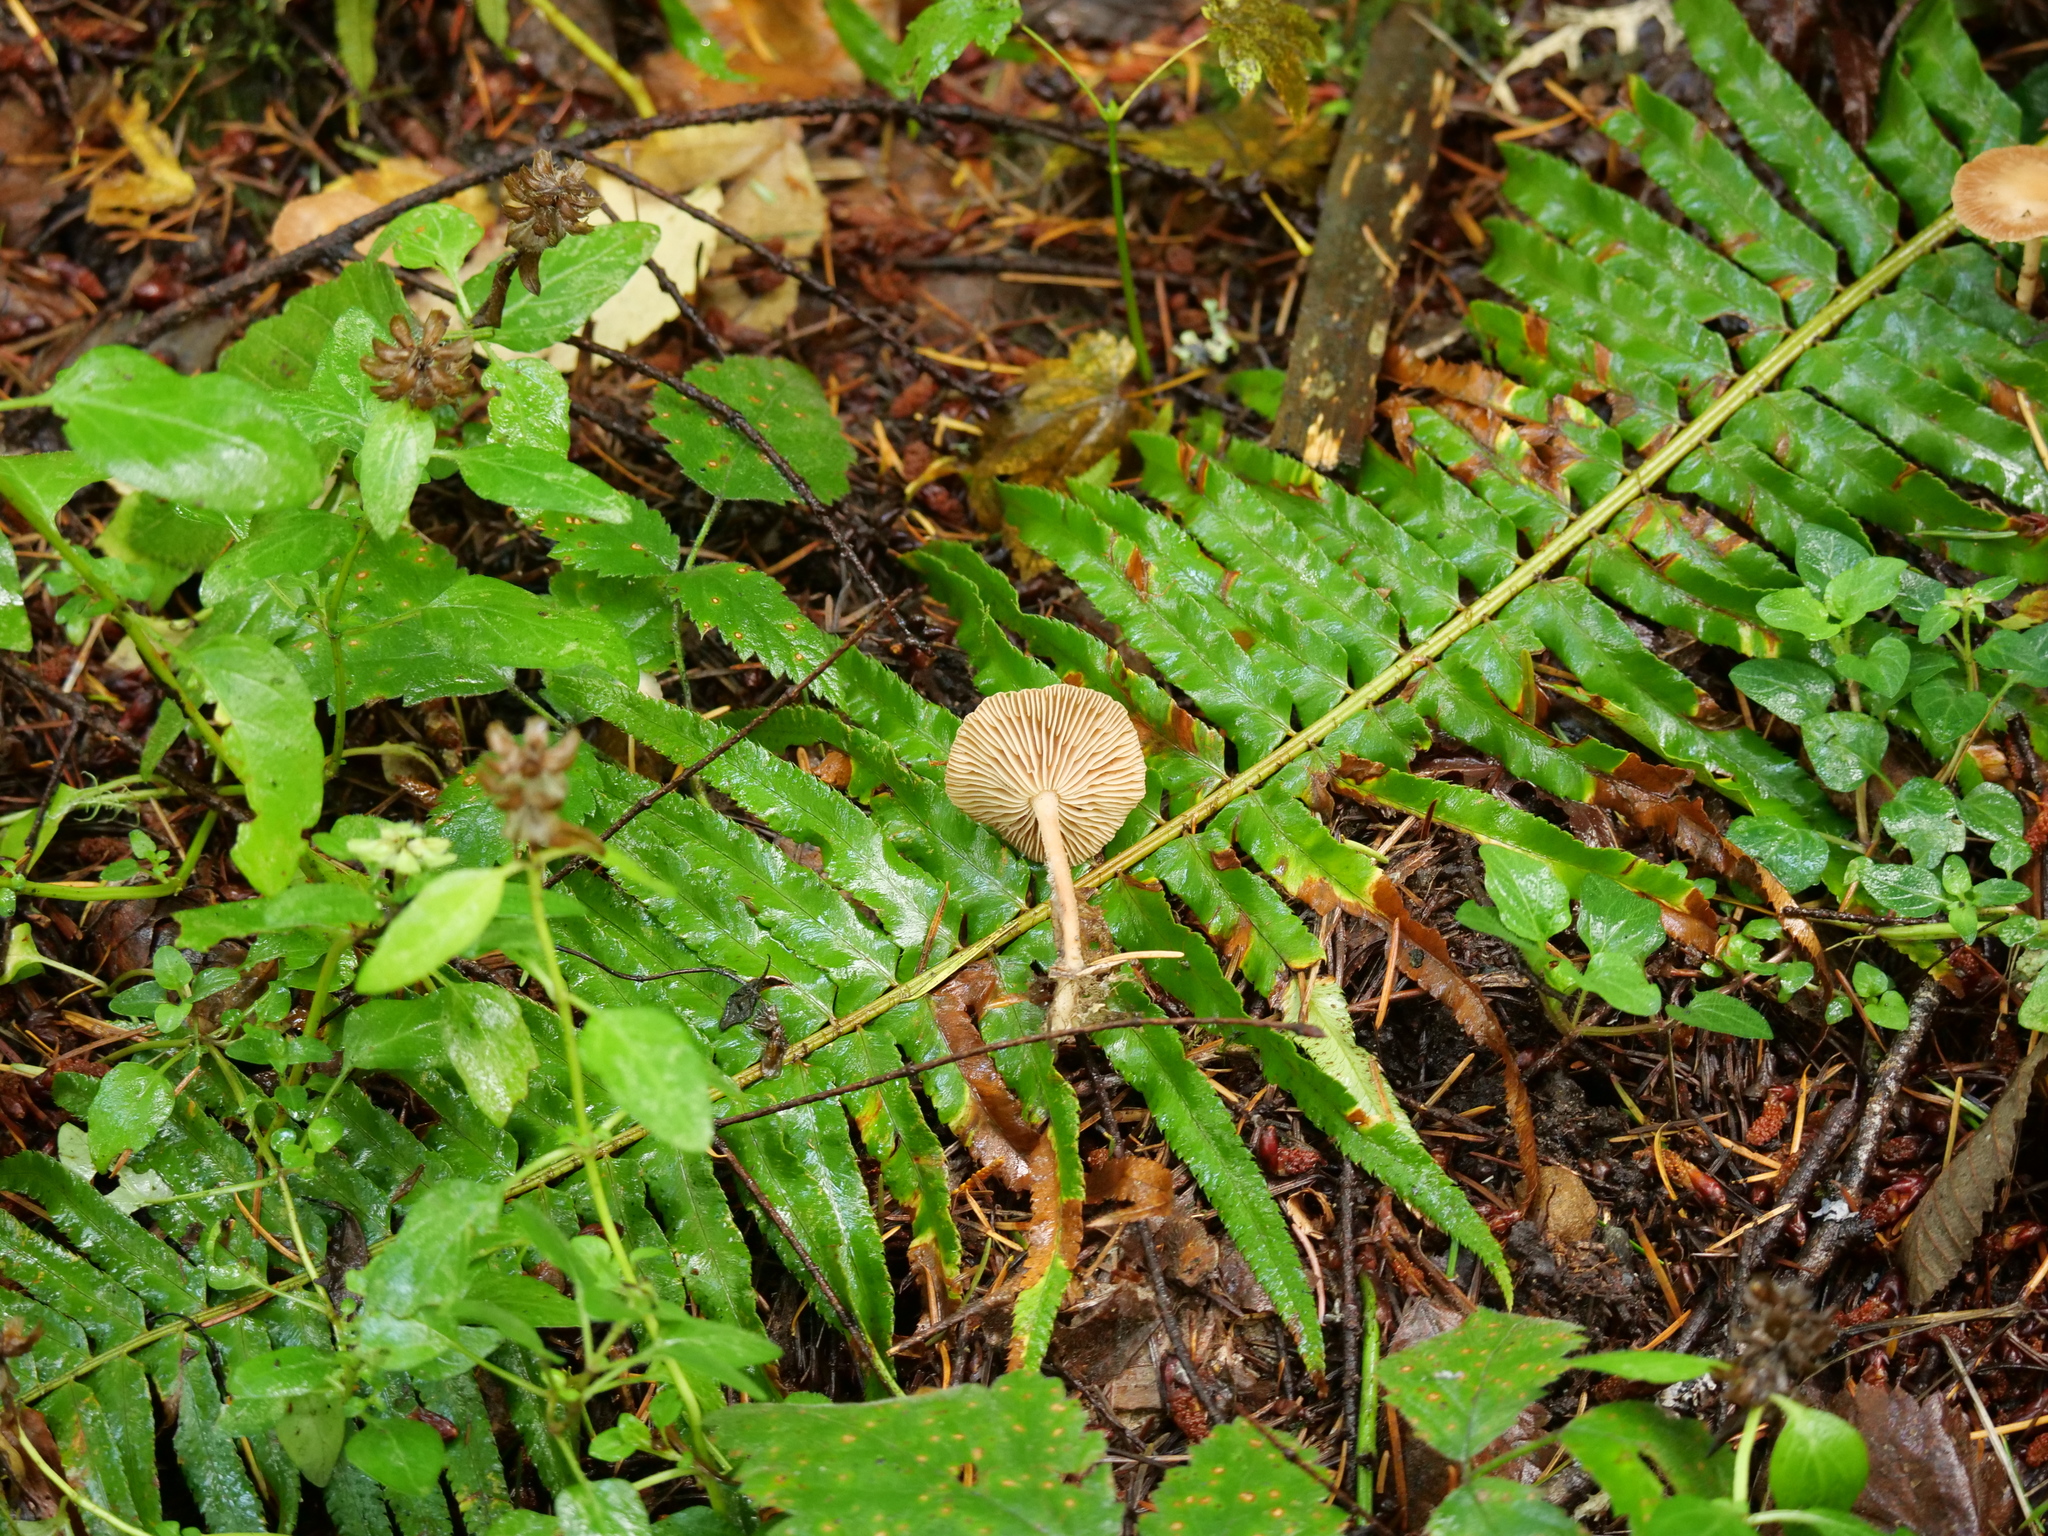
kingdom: Fungi
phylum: Basidiomycota
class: Agaricomycetes
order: Agaricales
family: Omphalotaceae
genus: Collybiopsis
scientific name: Collybiopsis peronata
